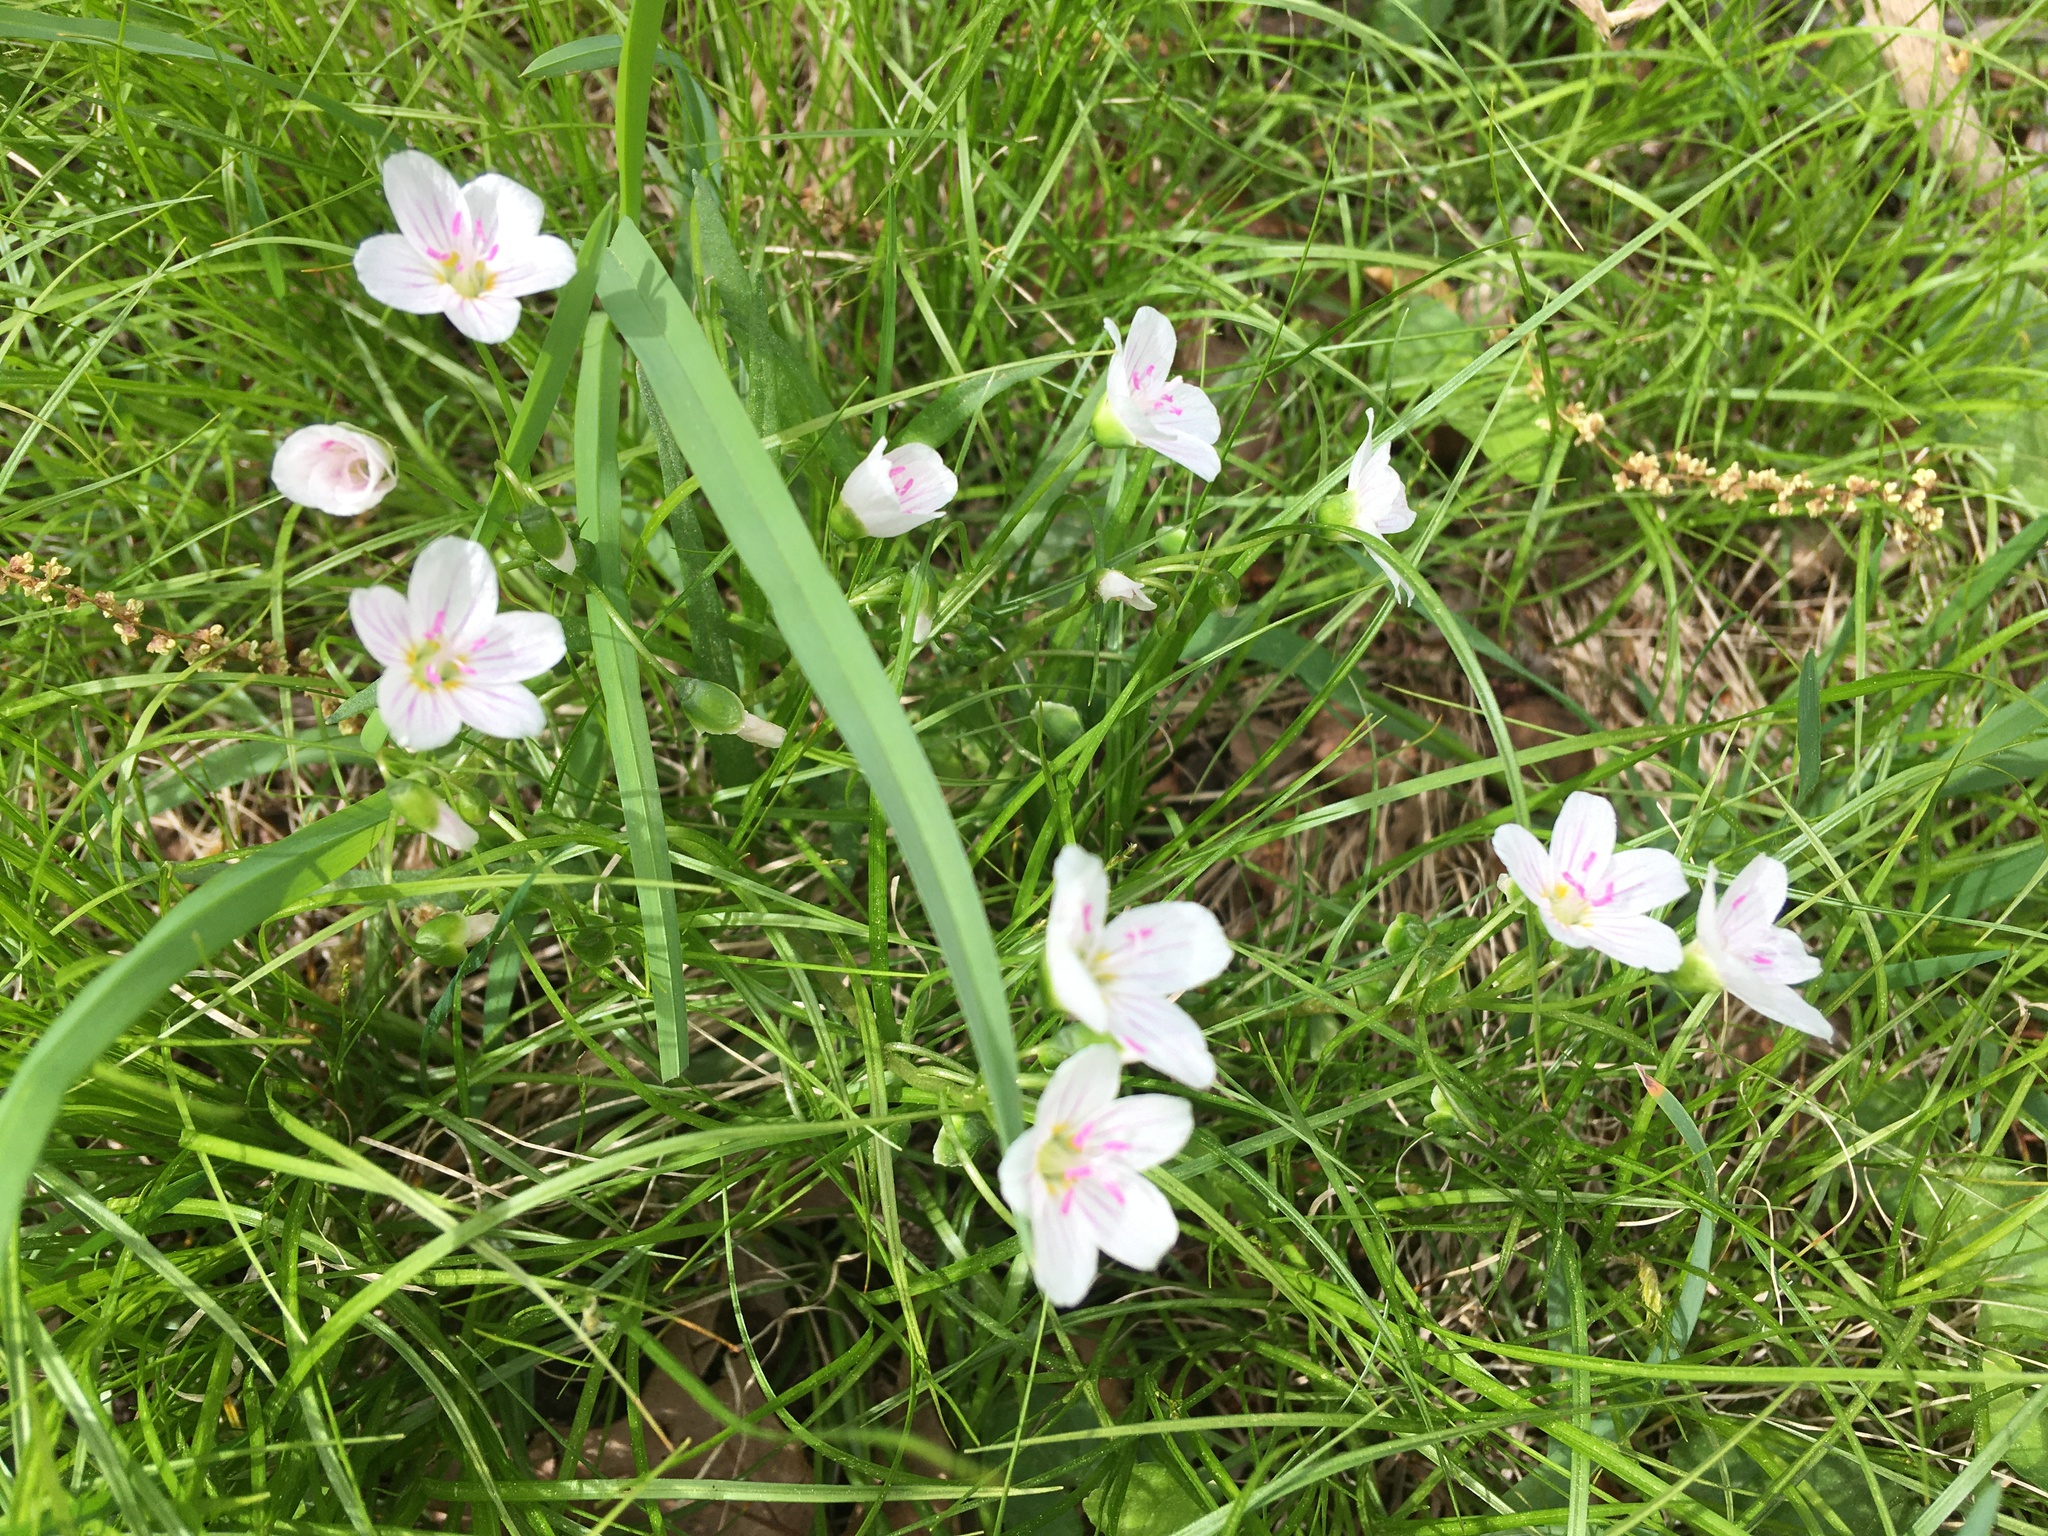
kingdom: Plantae
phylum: Tracheophyta
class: Magnoliopsida
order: Caryophyllales
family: Montiaceae
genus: Claytonia
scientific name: Claytonia virginica
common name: Virginia springbeauty
